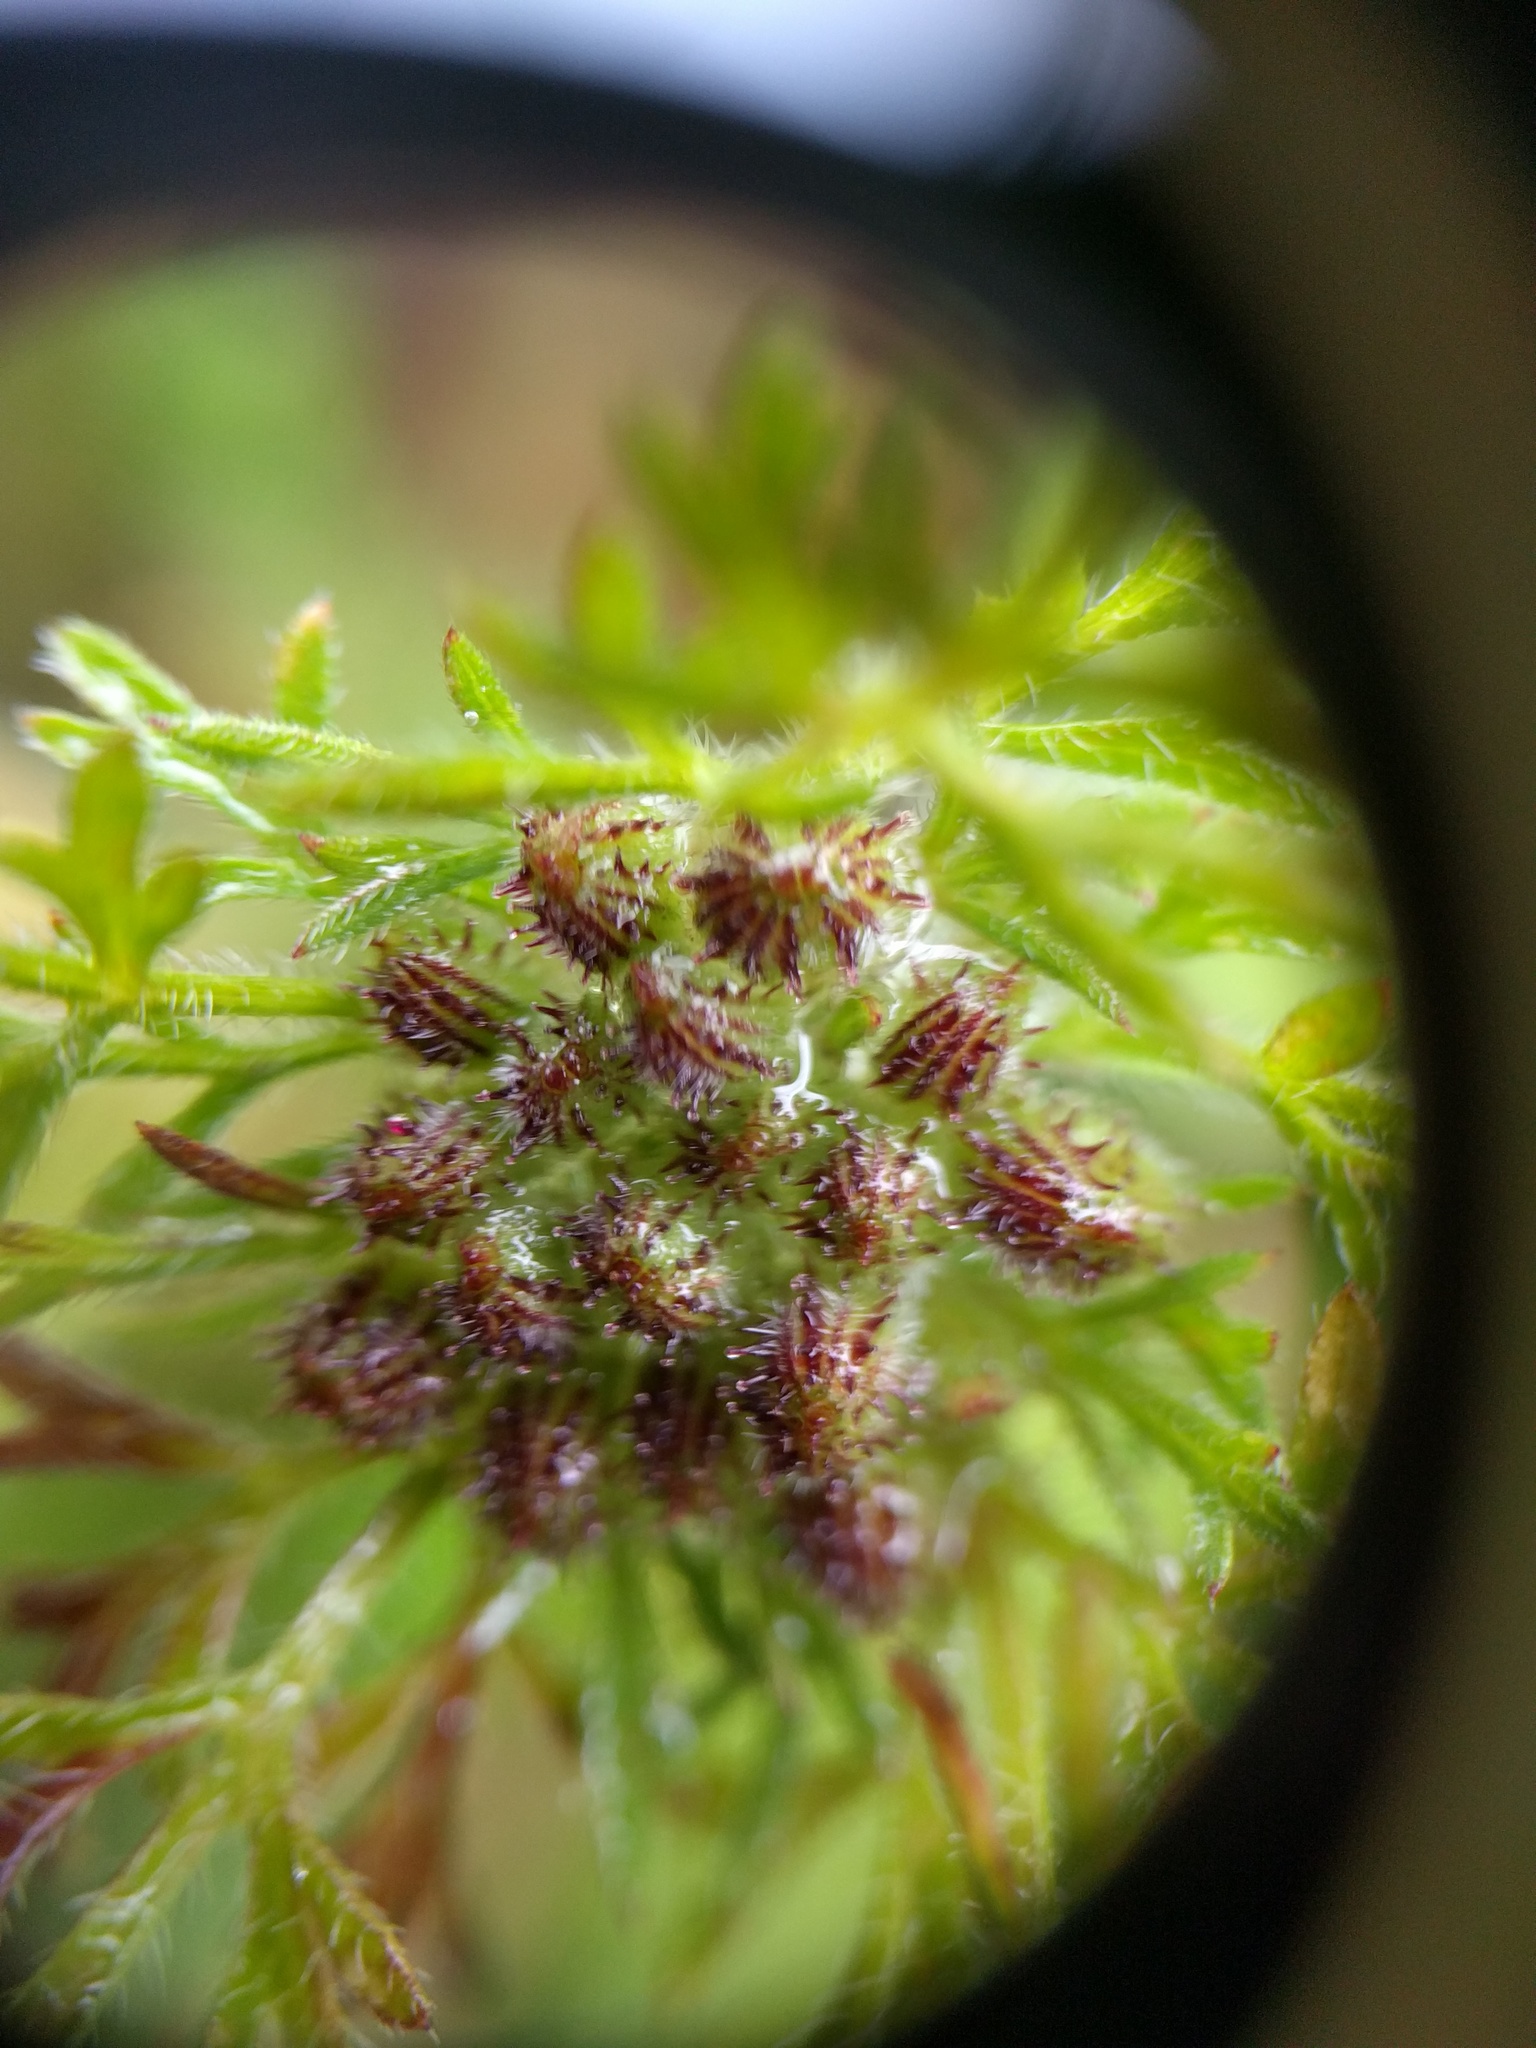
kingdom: Plantae
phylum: Tracheophyta
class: Magnoliopsida
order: Apiales
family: Apiaceae
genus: Daucus
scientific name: Daucus pusillus
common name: Southwest wild carrot
